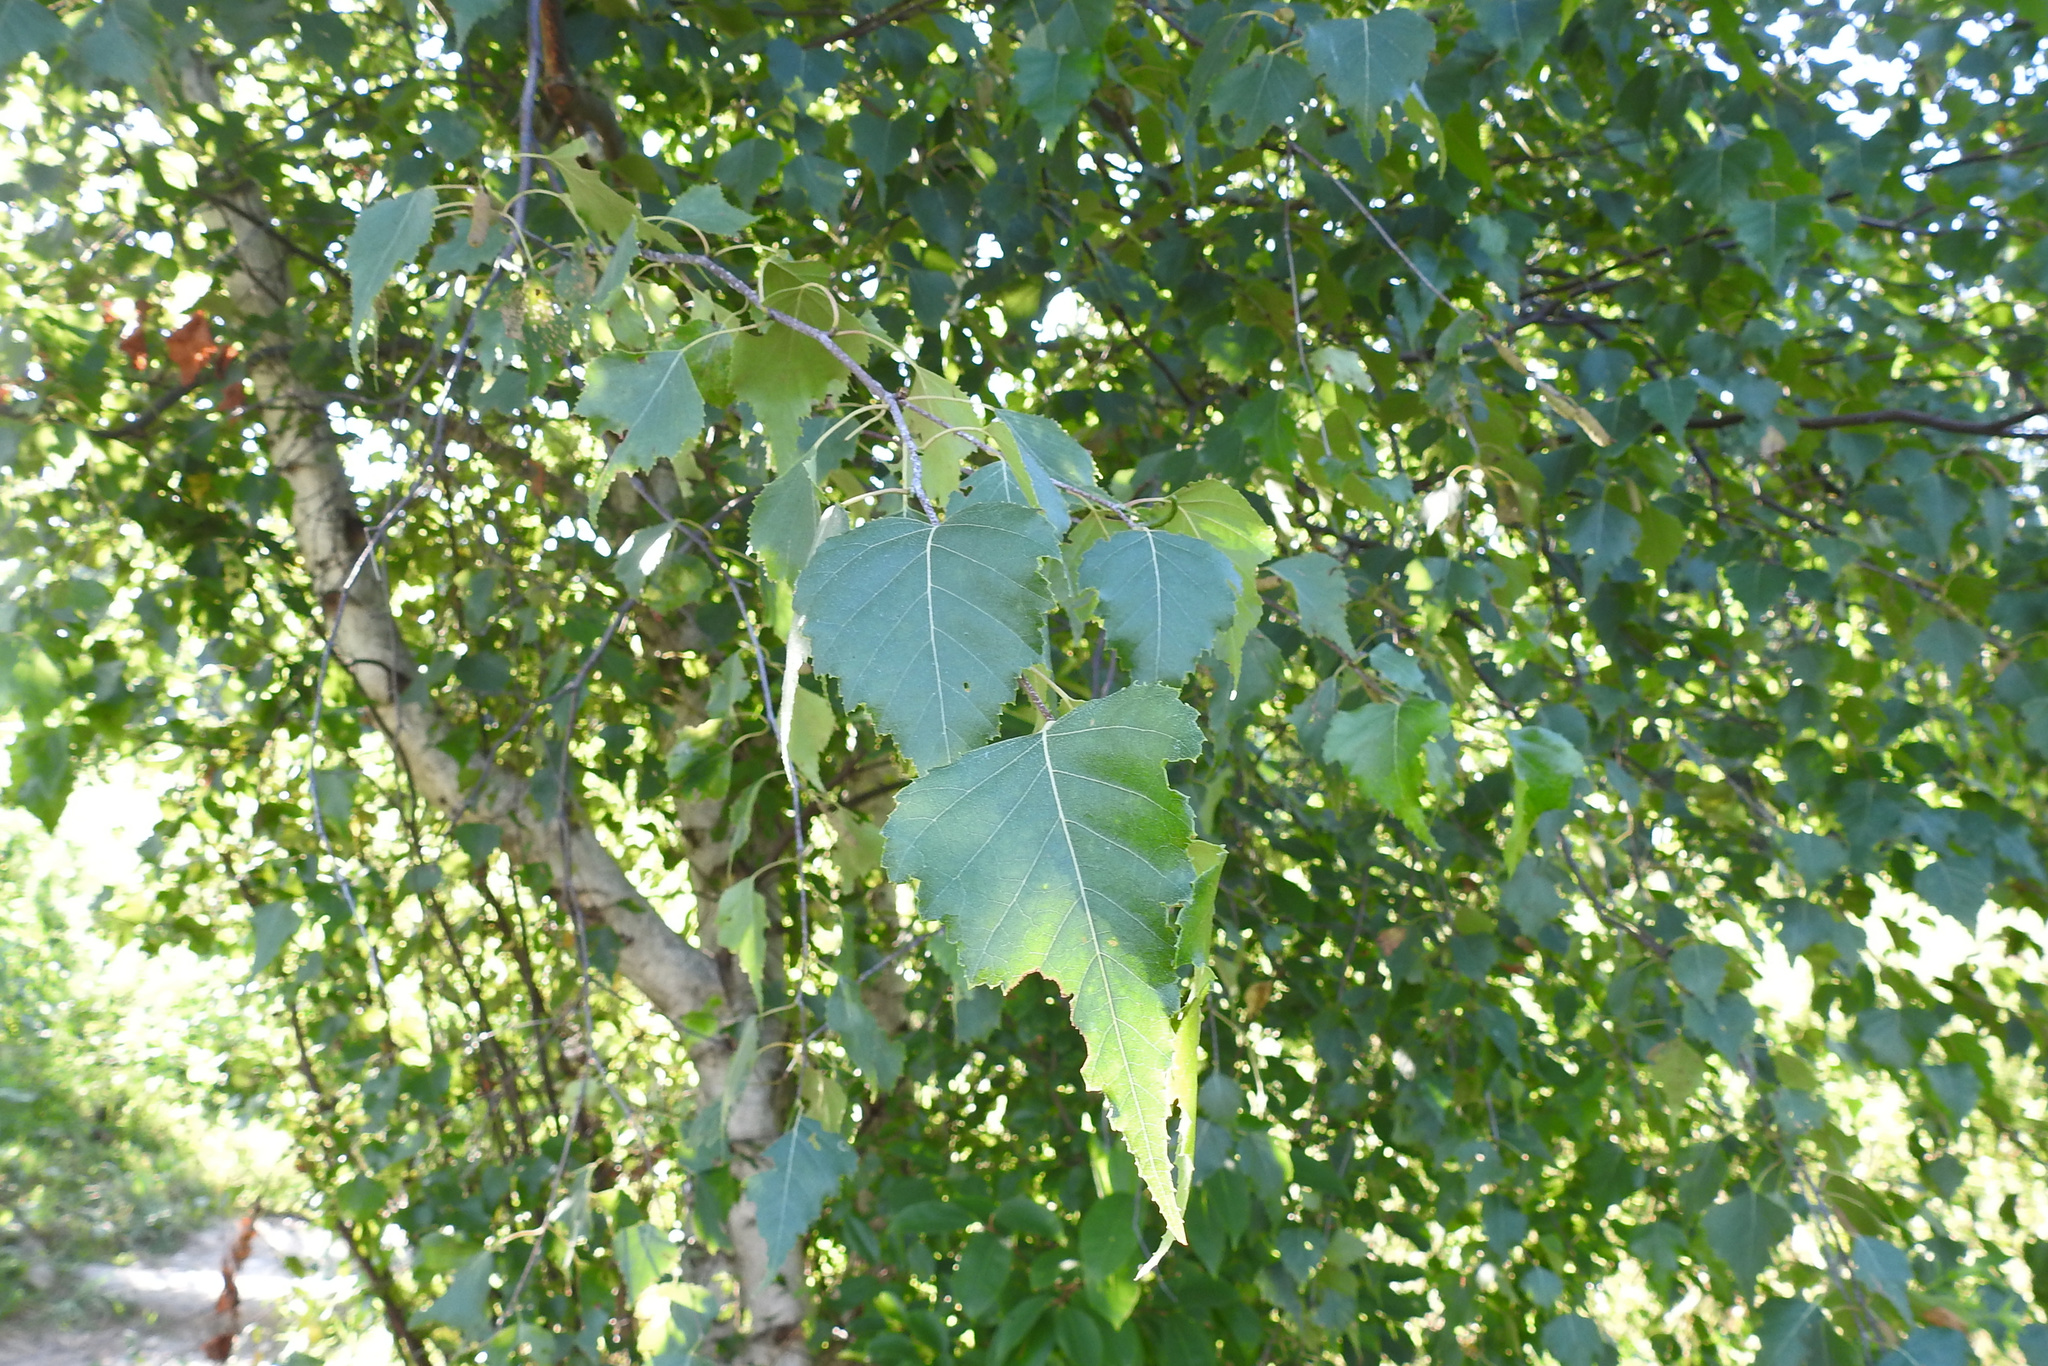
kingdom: Plantae
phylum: Tracheophyta
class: Magnoliopsida
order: Fagales
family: Betulaceae
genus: Betula
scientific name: Betula populifolia
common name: Fire birch
